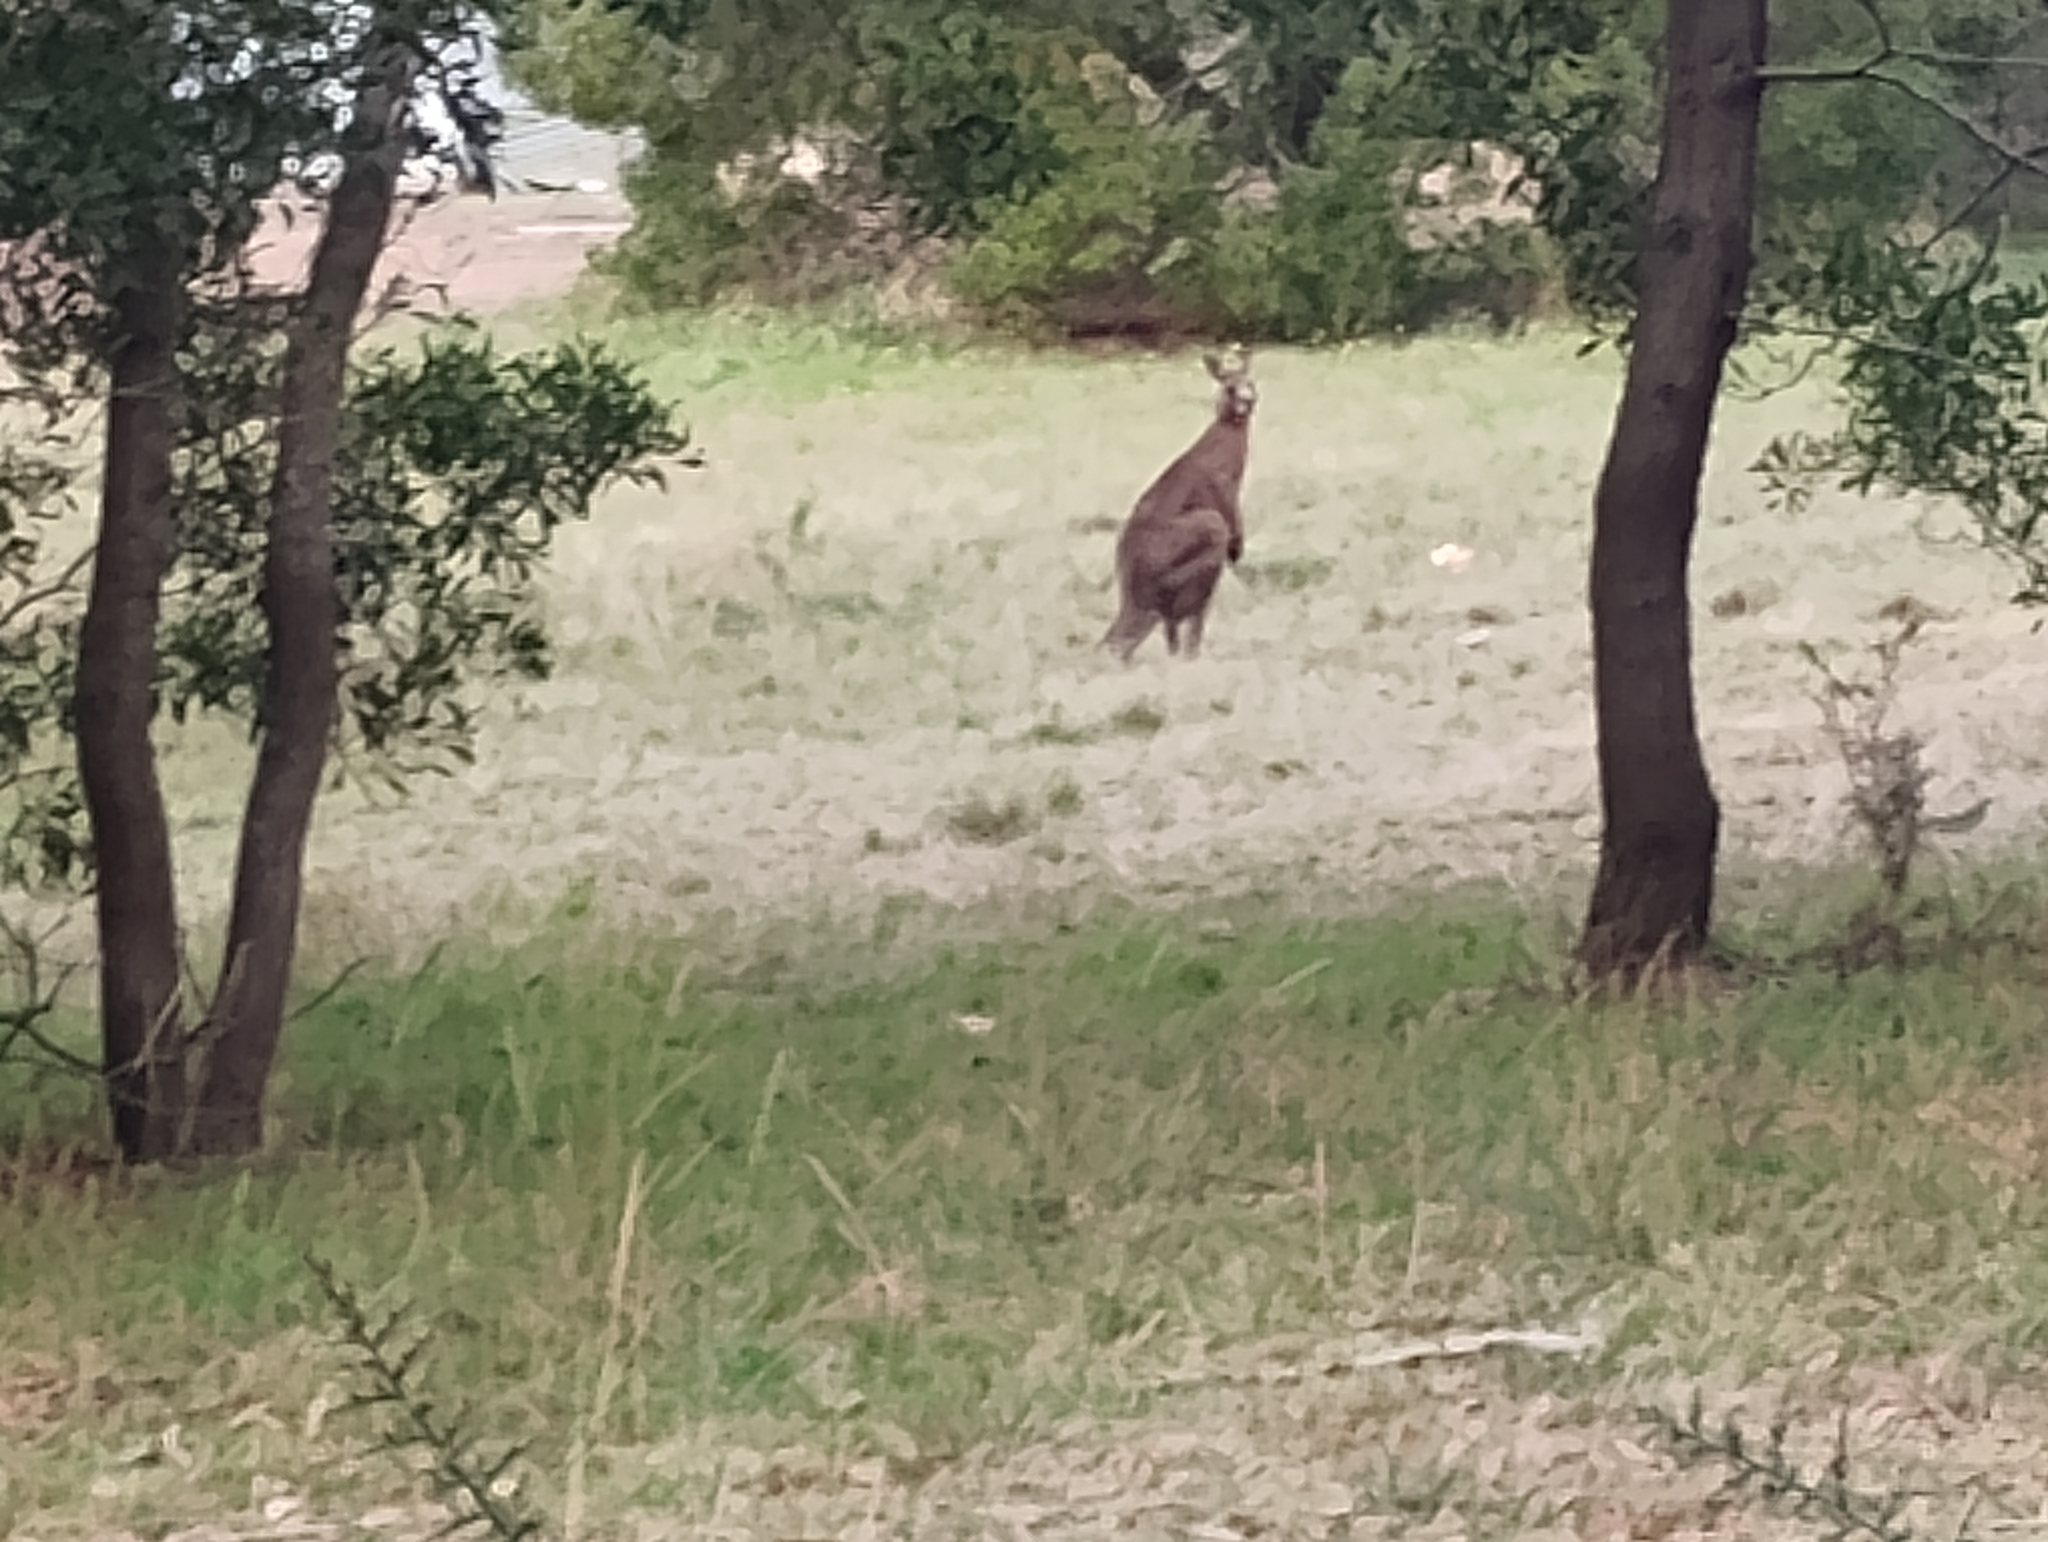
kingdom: Animalia
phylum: Chordata
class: Mammalia
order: Diprotodontia
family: Macropodidae
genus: Macropus
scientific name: Macropus giganteus
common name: Eastern grey kangaroo
